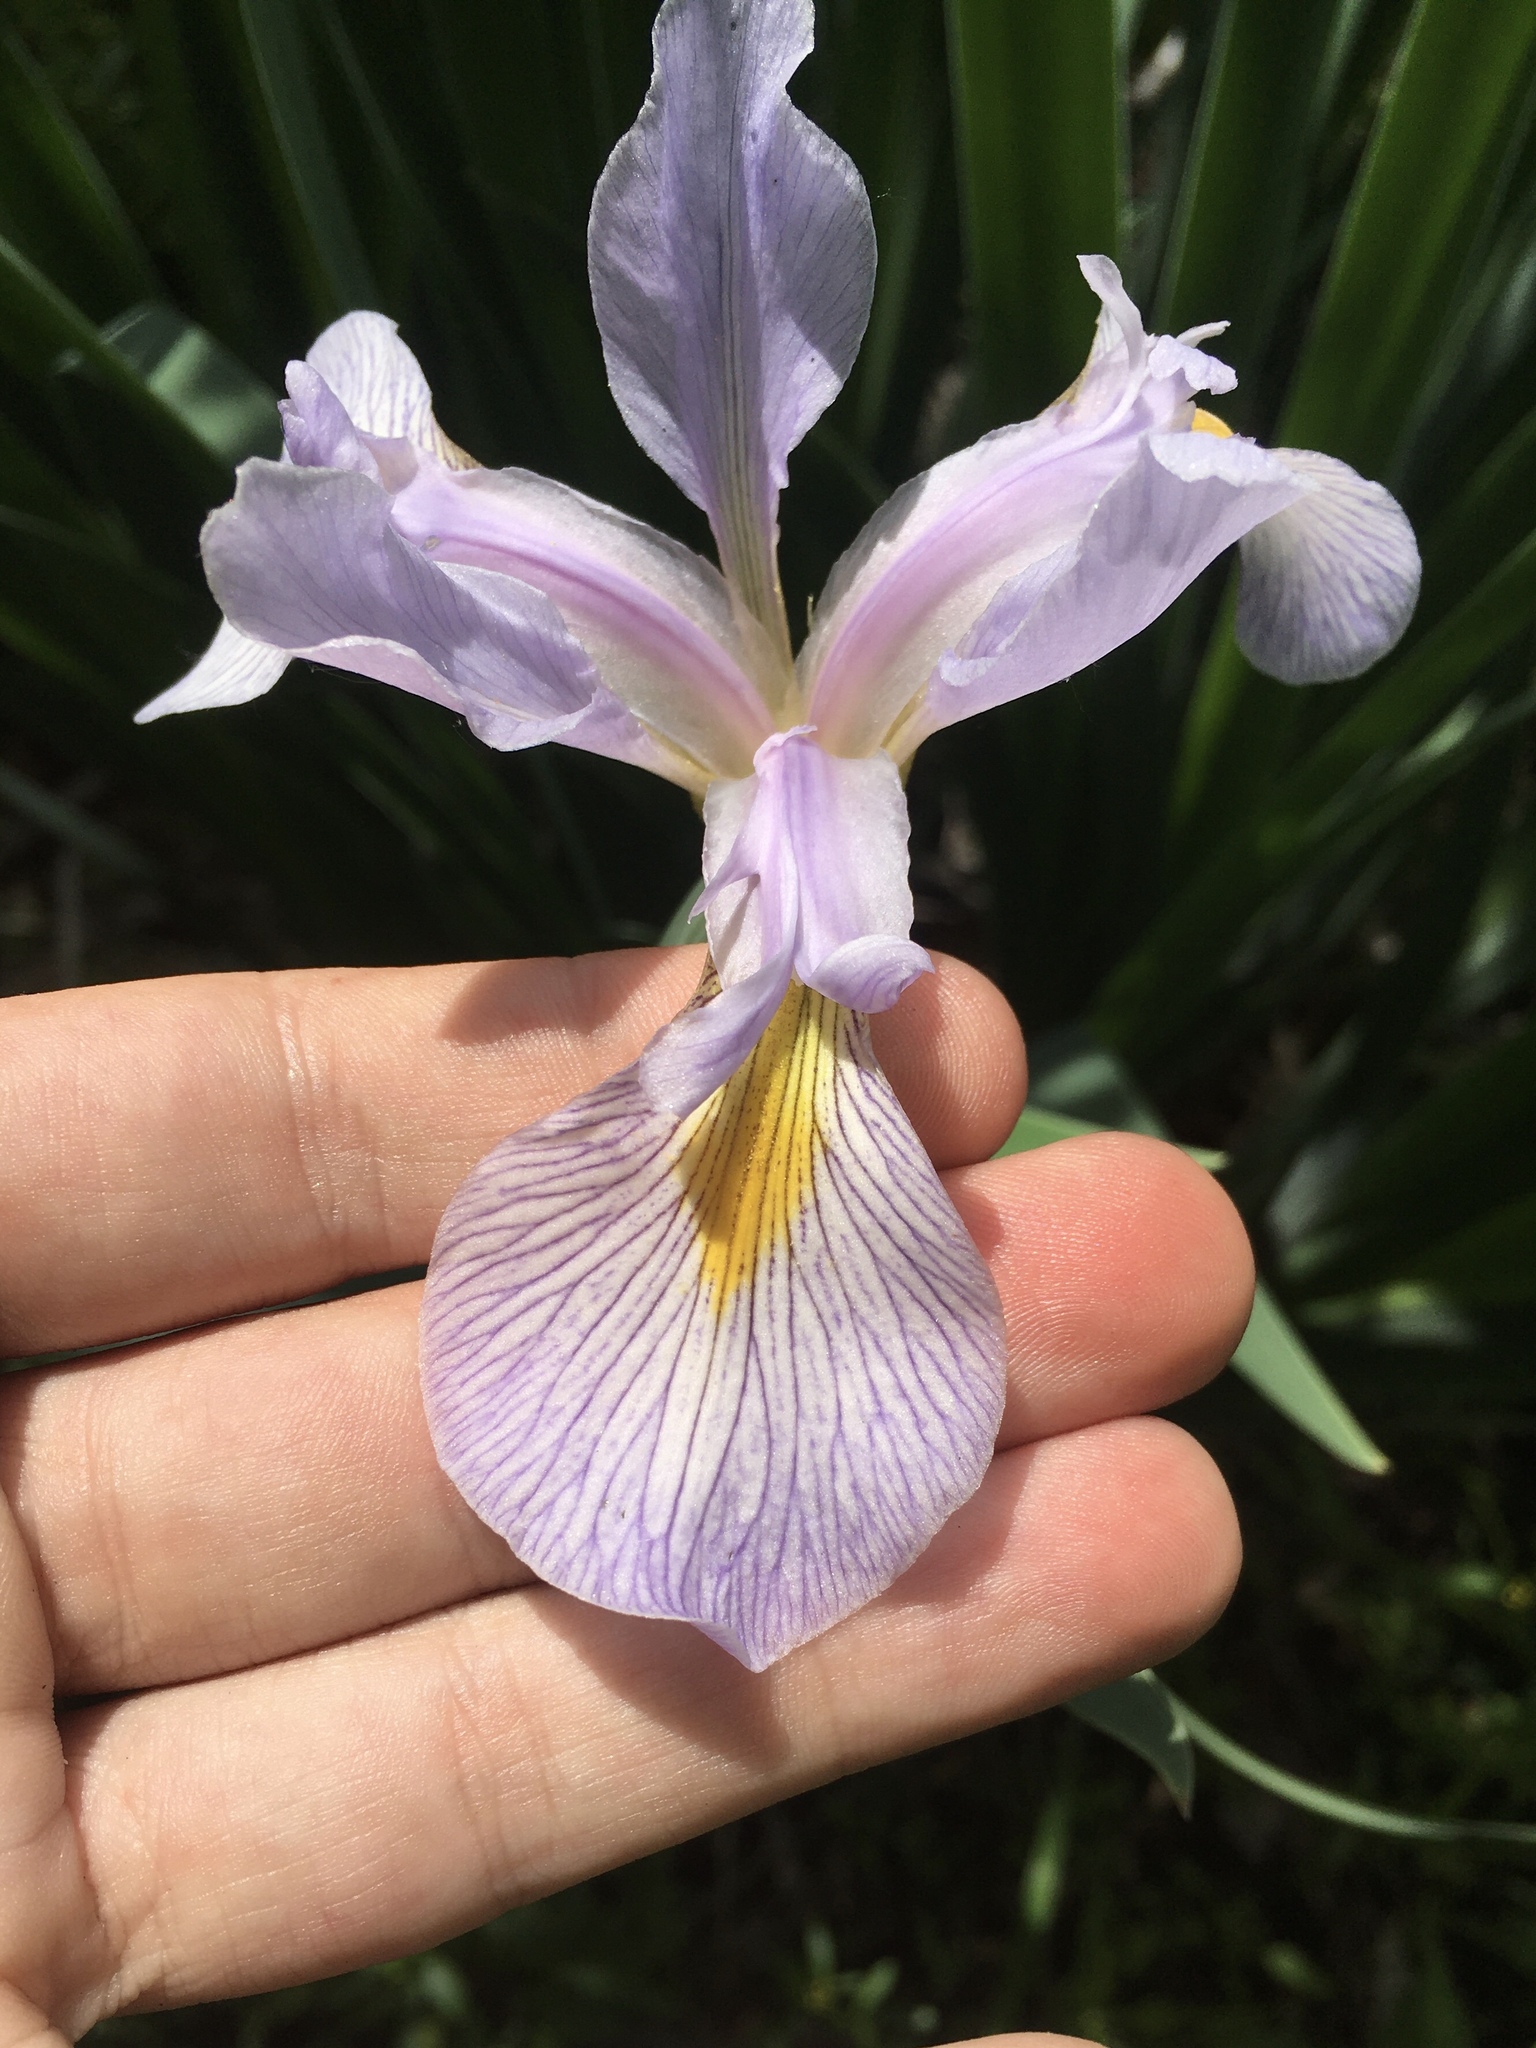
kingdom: Plantae
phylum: Tracheophyta
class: Liliopsida
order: Asparagales
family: Iridaceae
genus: Iris
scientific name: Iris virginica
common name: Southern blue flag
